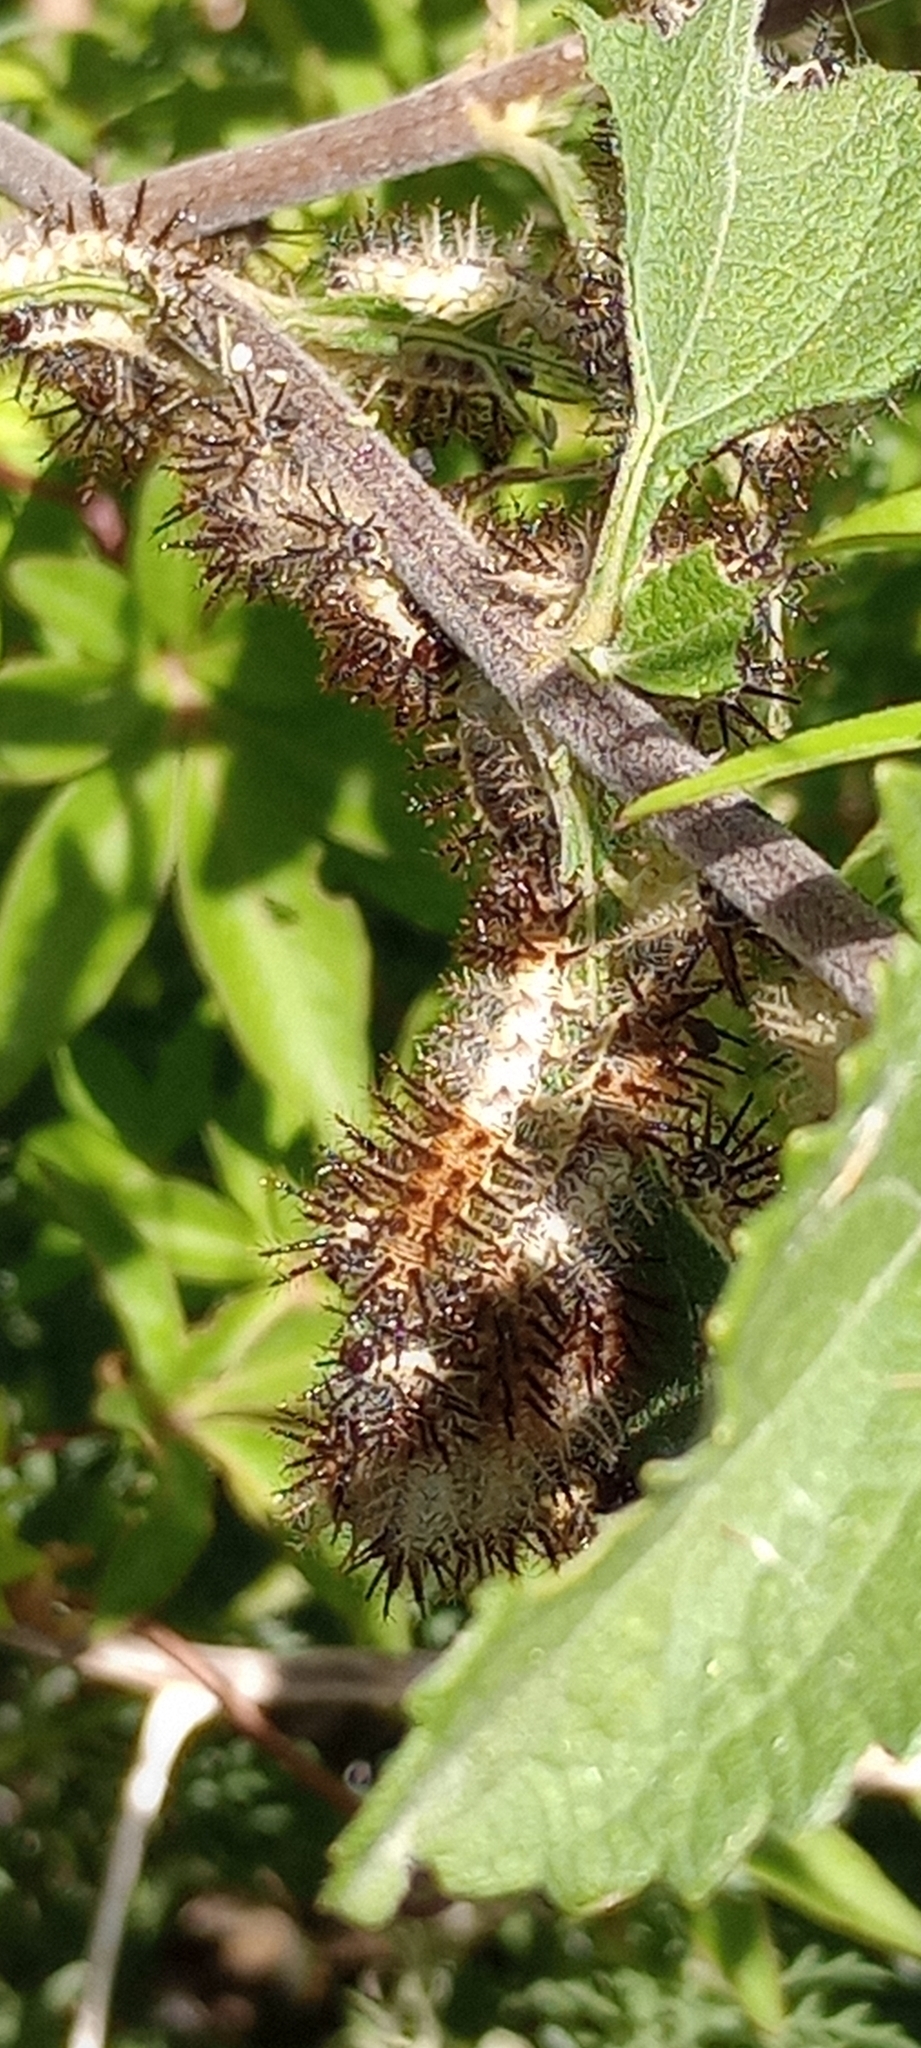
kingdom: Animalia
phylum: Arthropoda
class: Insecta
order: Lepidoptera
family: Nymphalidae
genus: Actinote
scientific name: Actinote pellenea
